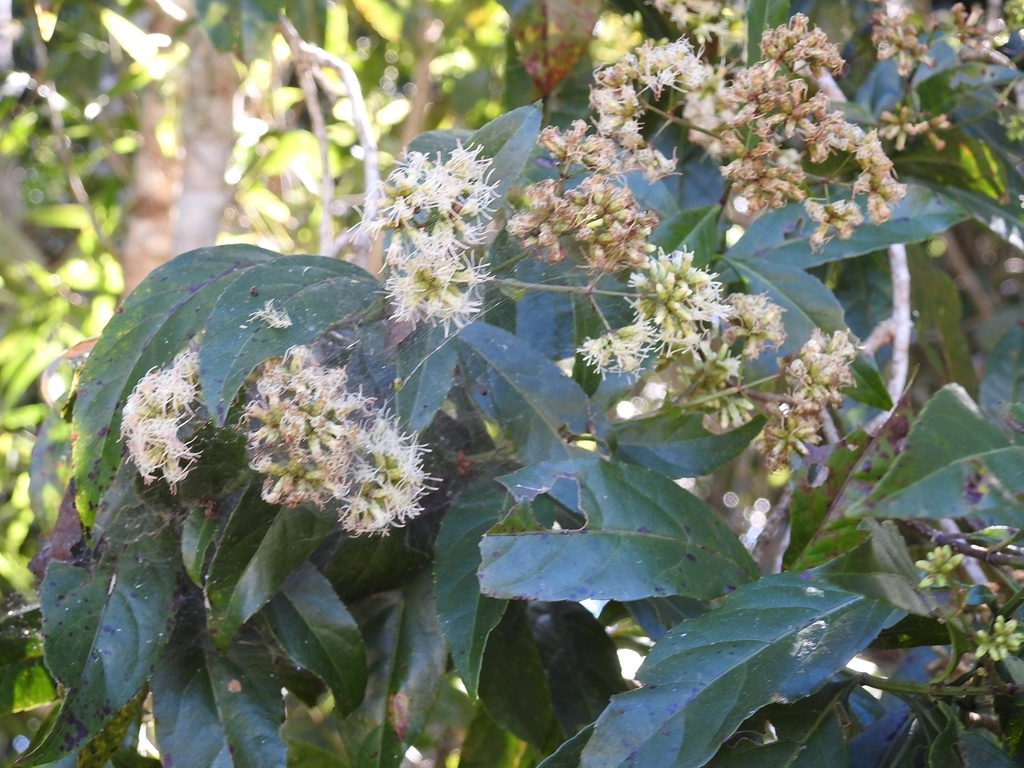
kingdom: Plantae
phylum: Tracheophyta
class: Magnoliopsida
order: Asterales
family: Asteraceae
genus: Critonia
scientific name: Critonia hospitalis
